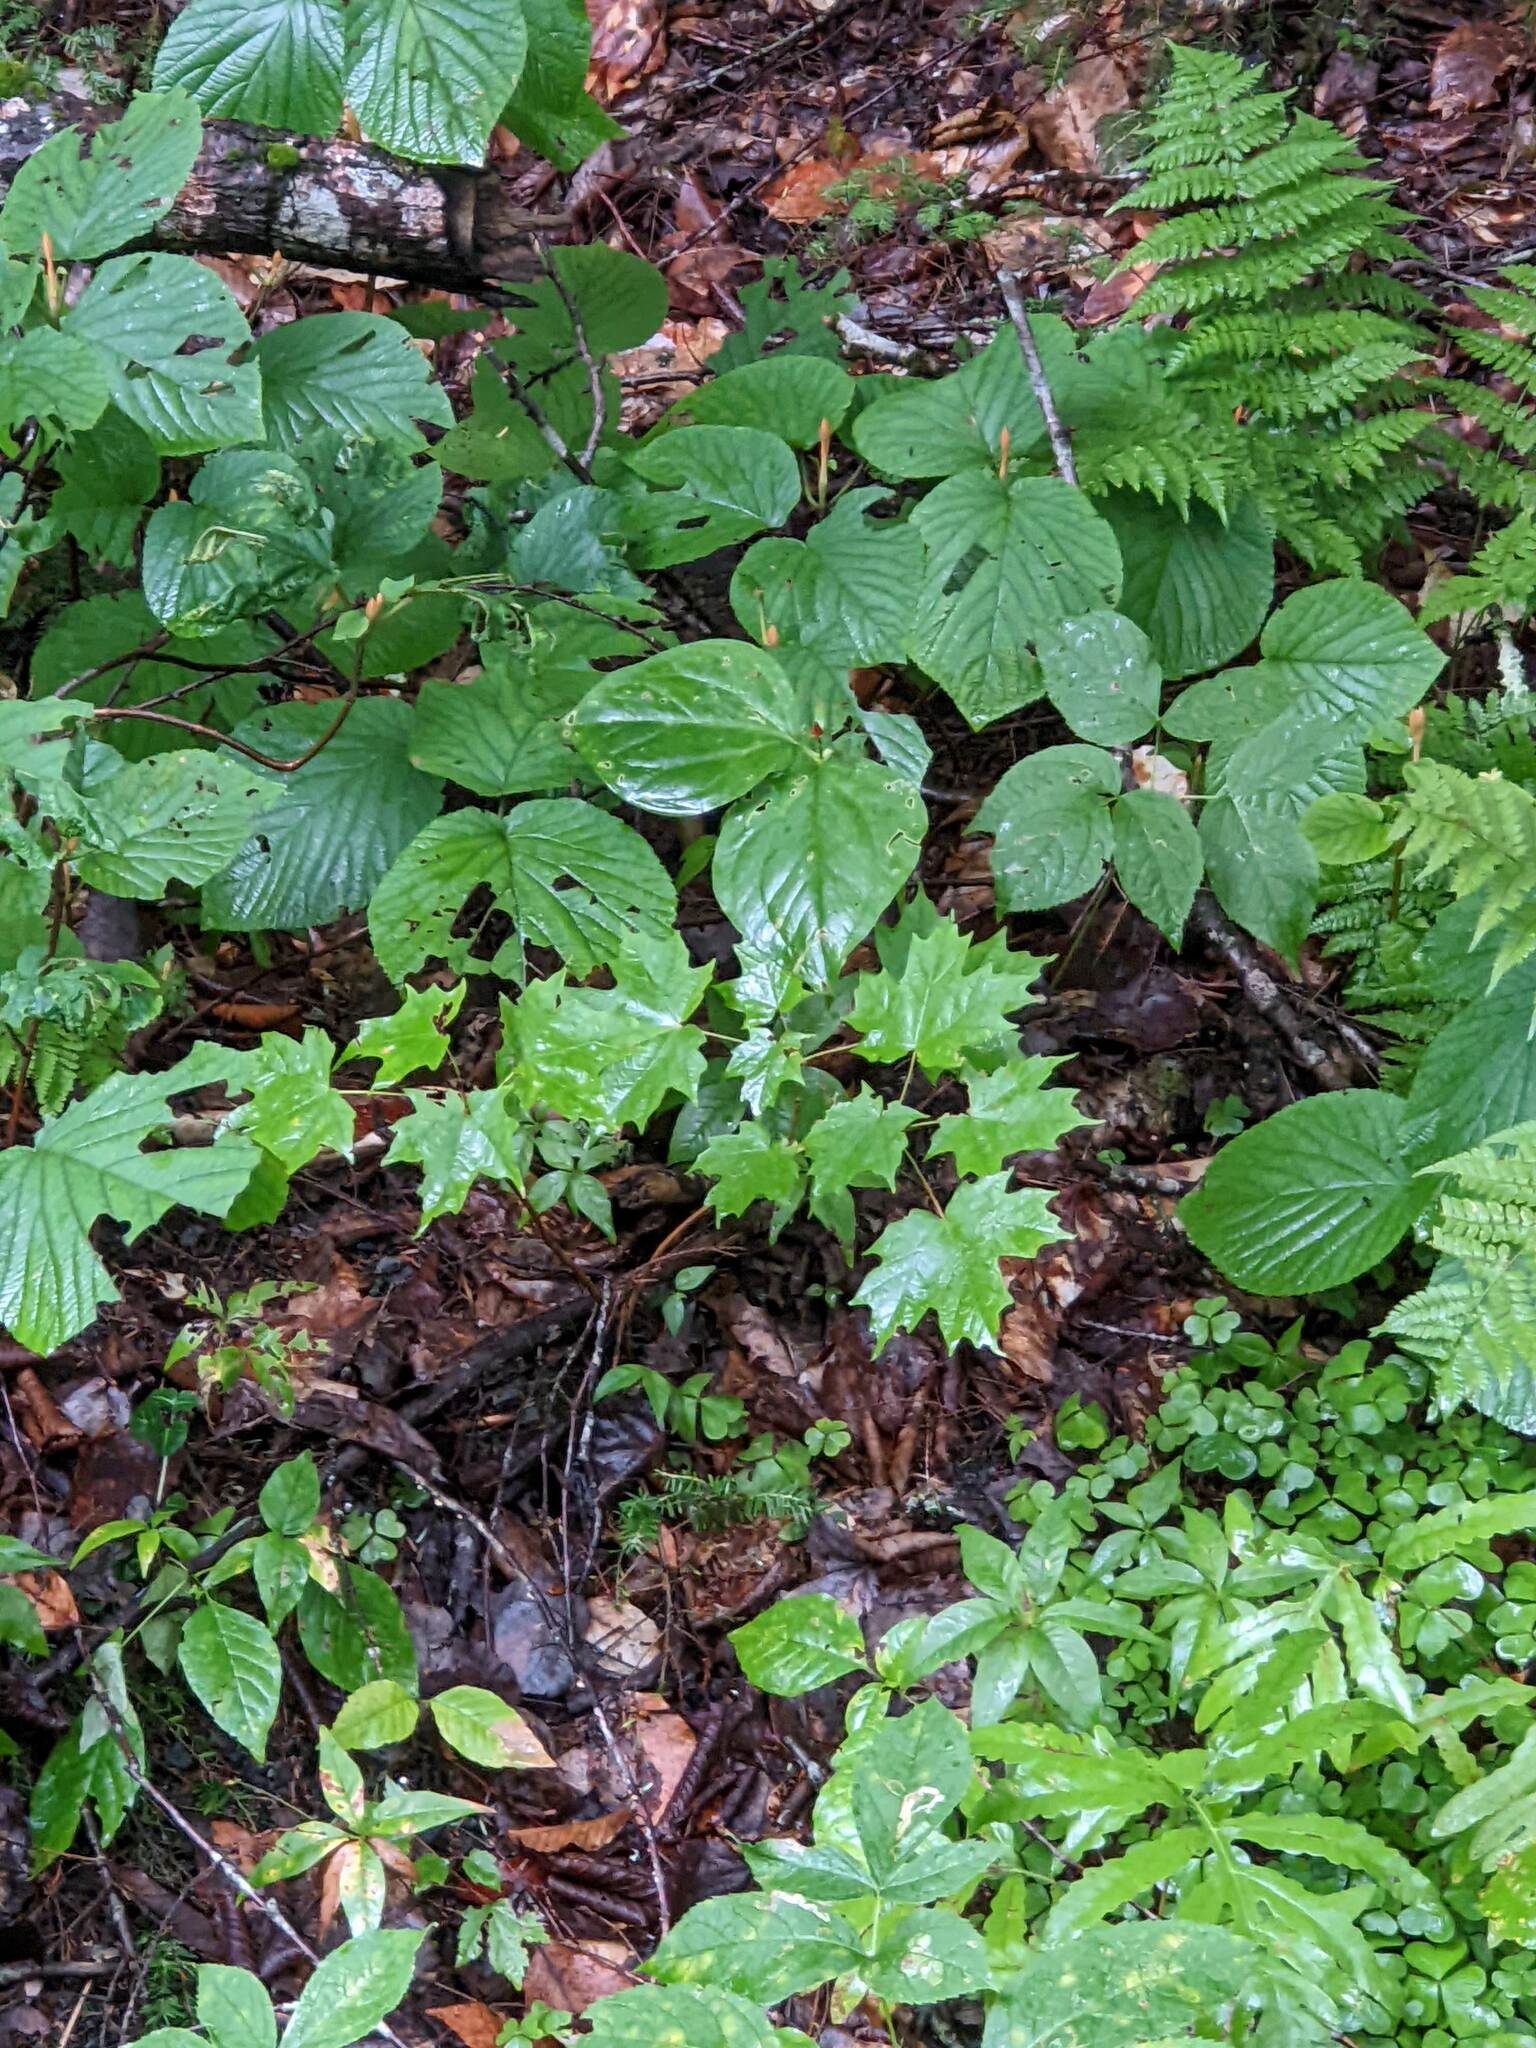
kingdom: Plantae
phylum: Tracheophyta
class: Magnoliopsida
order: Dipsacales
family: Viburnaceae
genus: Viburnum
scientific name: Viburnum lantanoides
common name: Hobblebush
